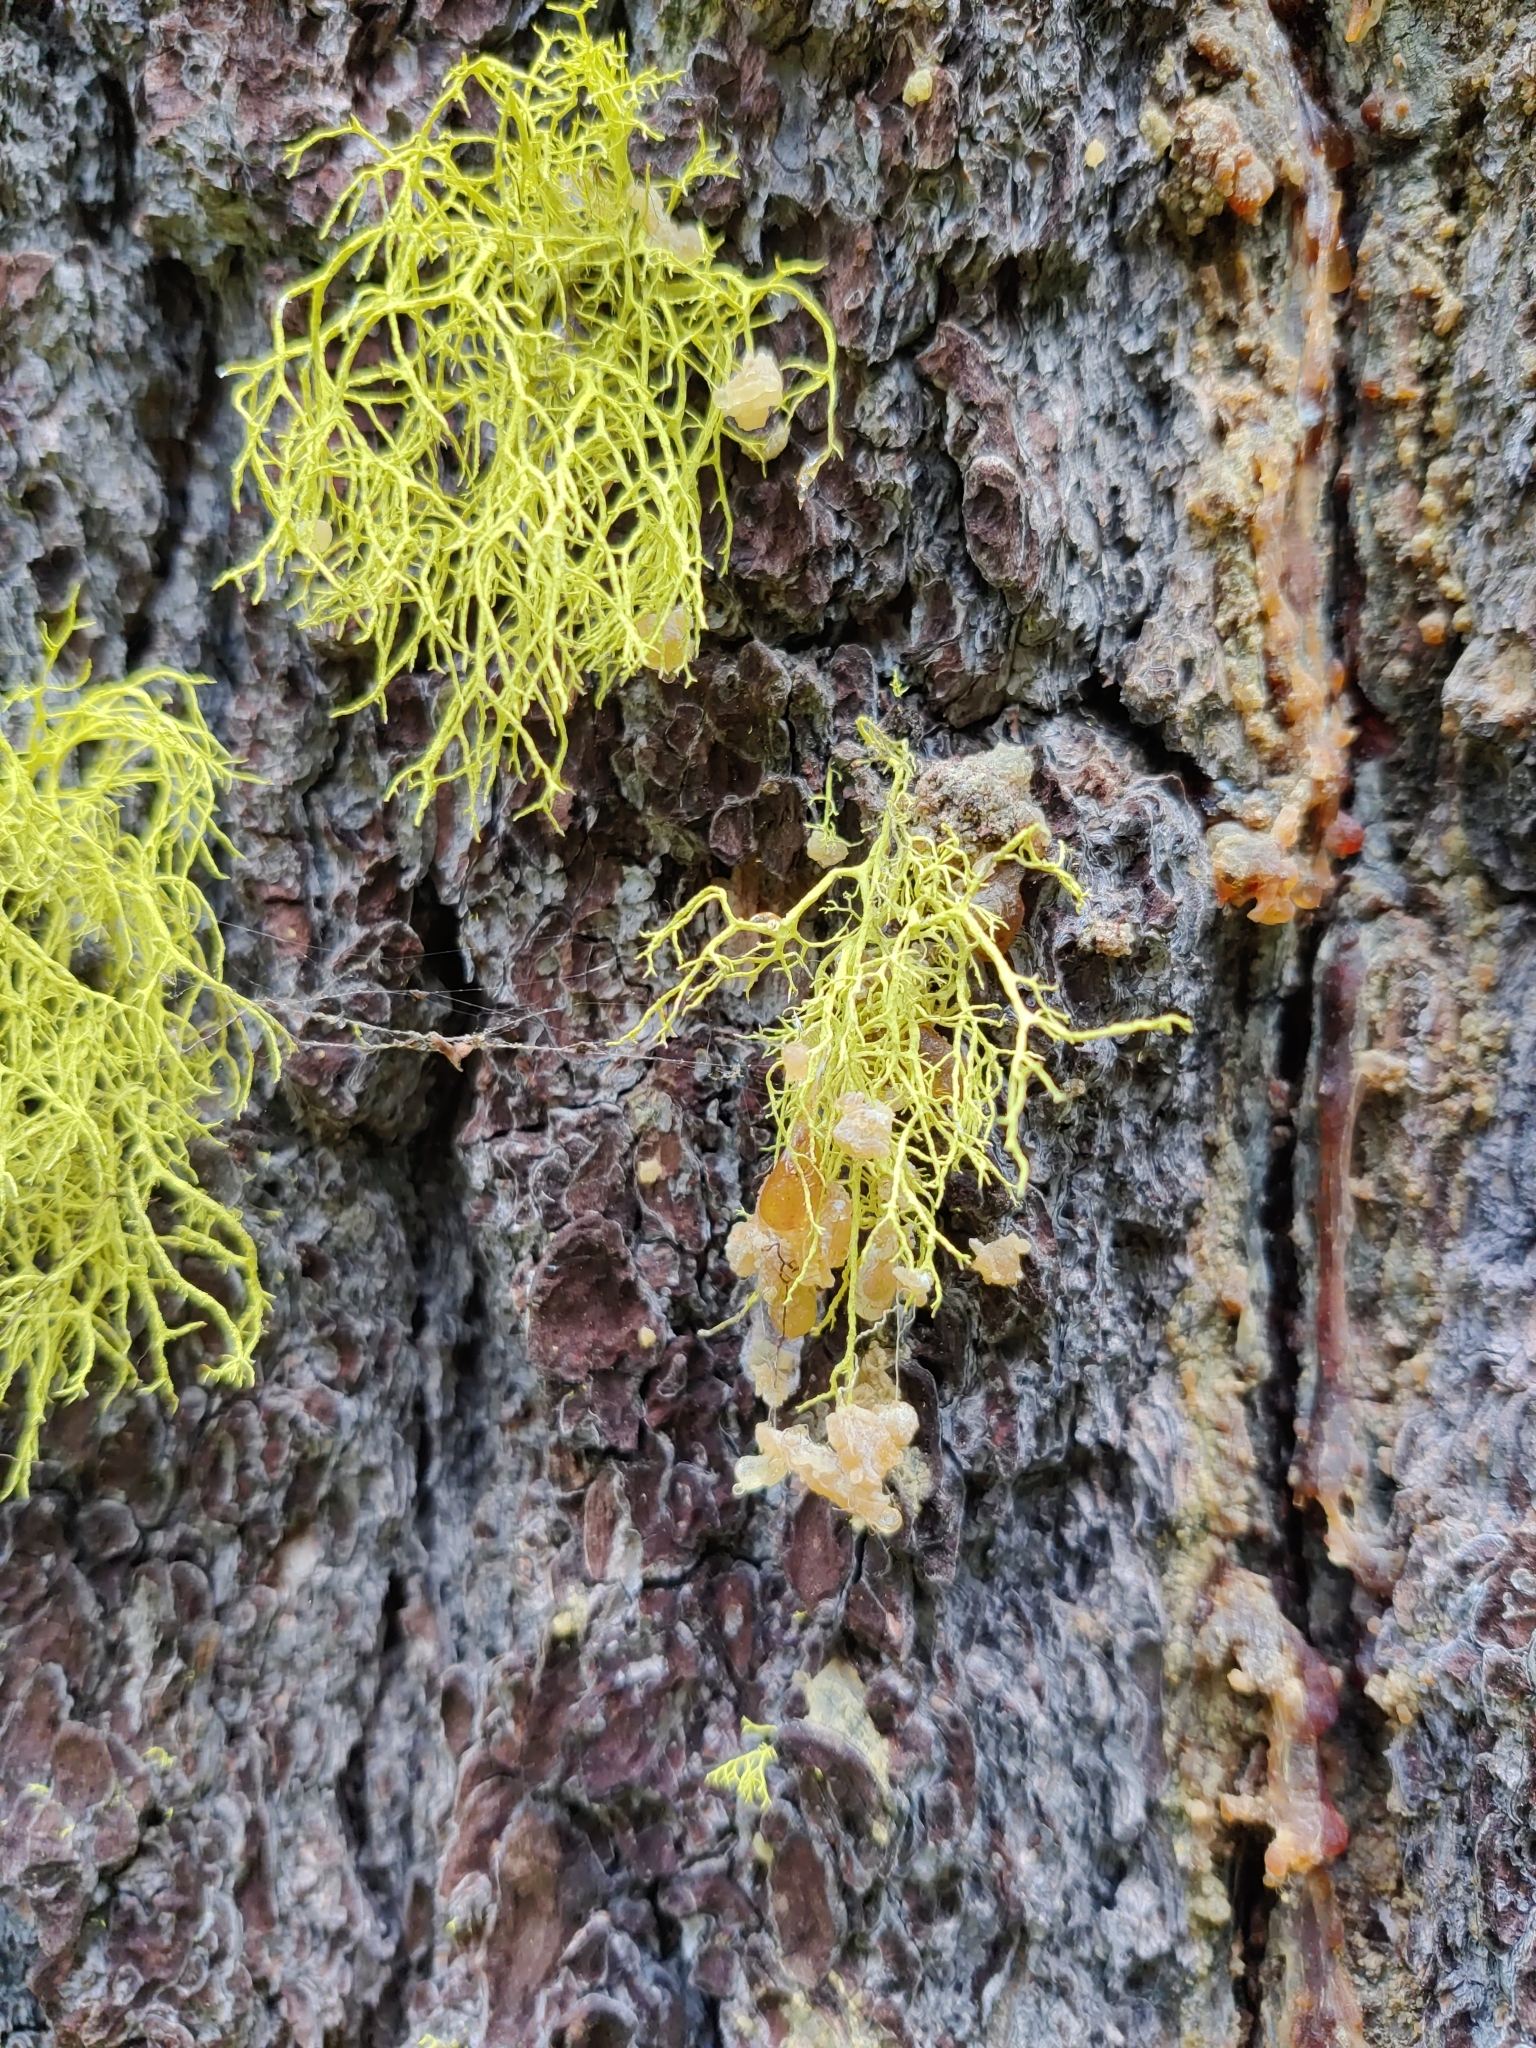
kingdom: Fungi
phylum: Ascomycota
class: Lecanoromycetes
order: Lecanorales
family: Parmeliaceae
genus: Letharia
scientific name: Letharia vulpina
